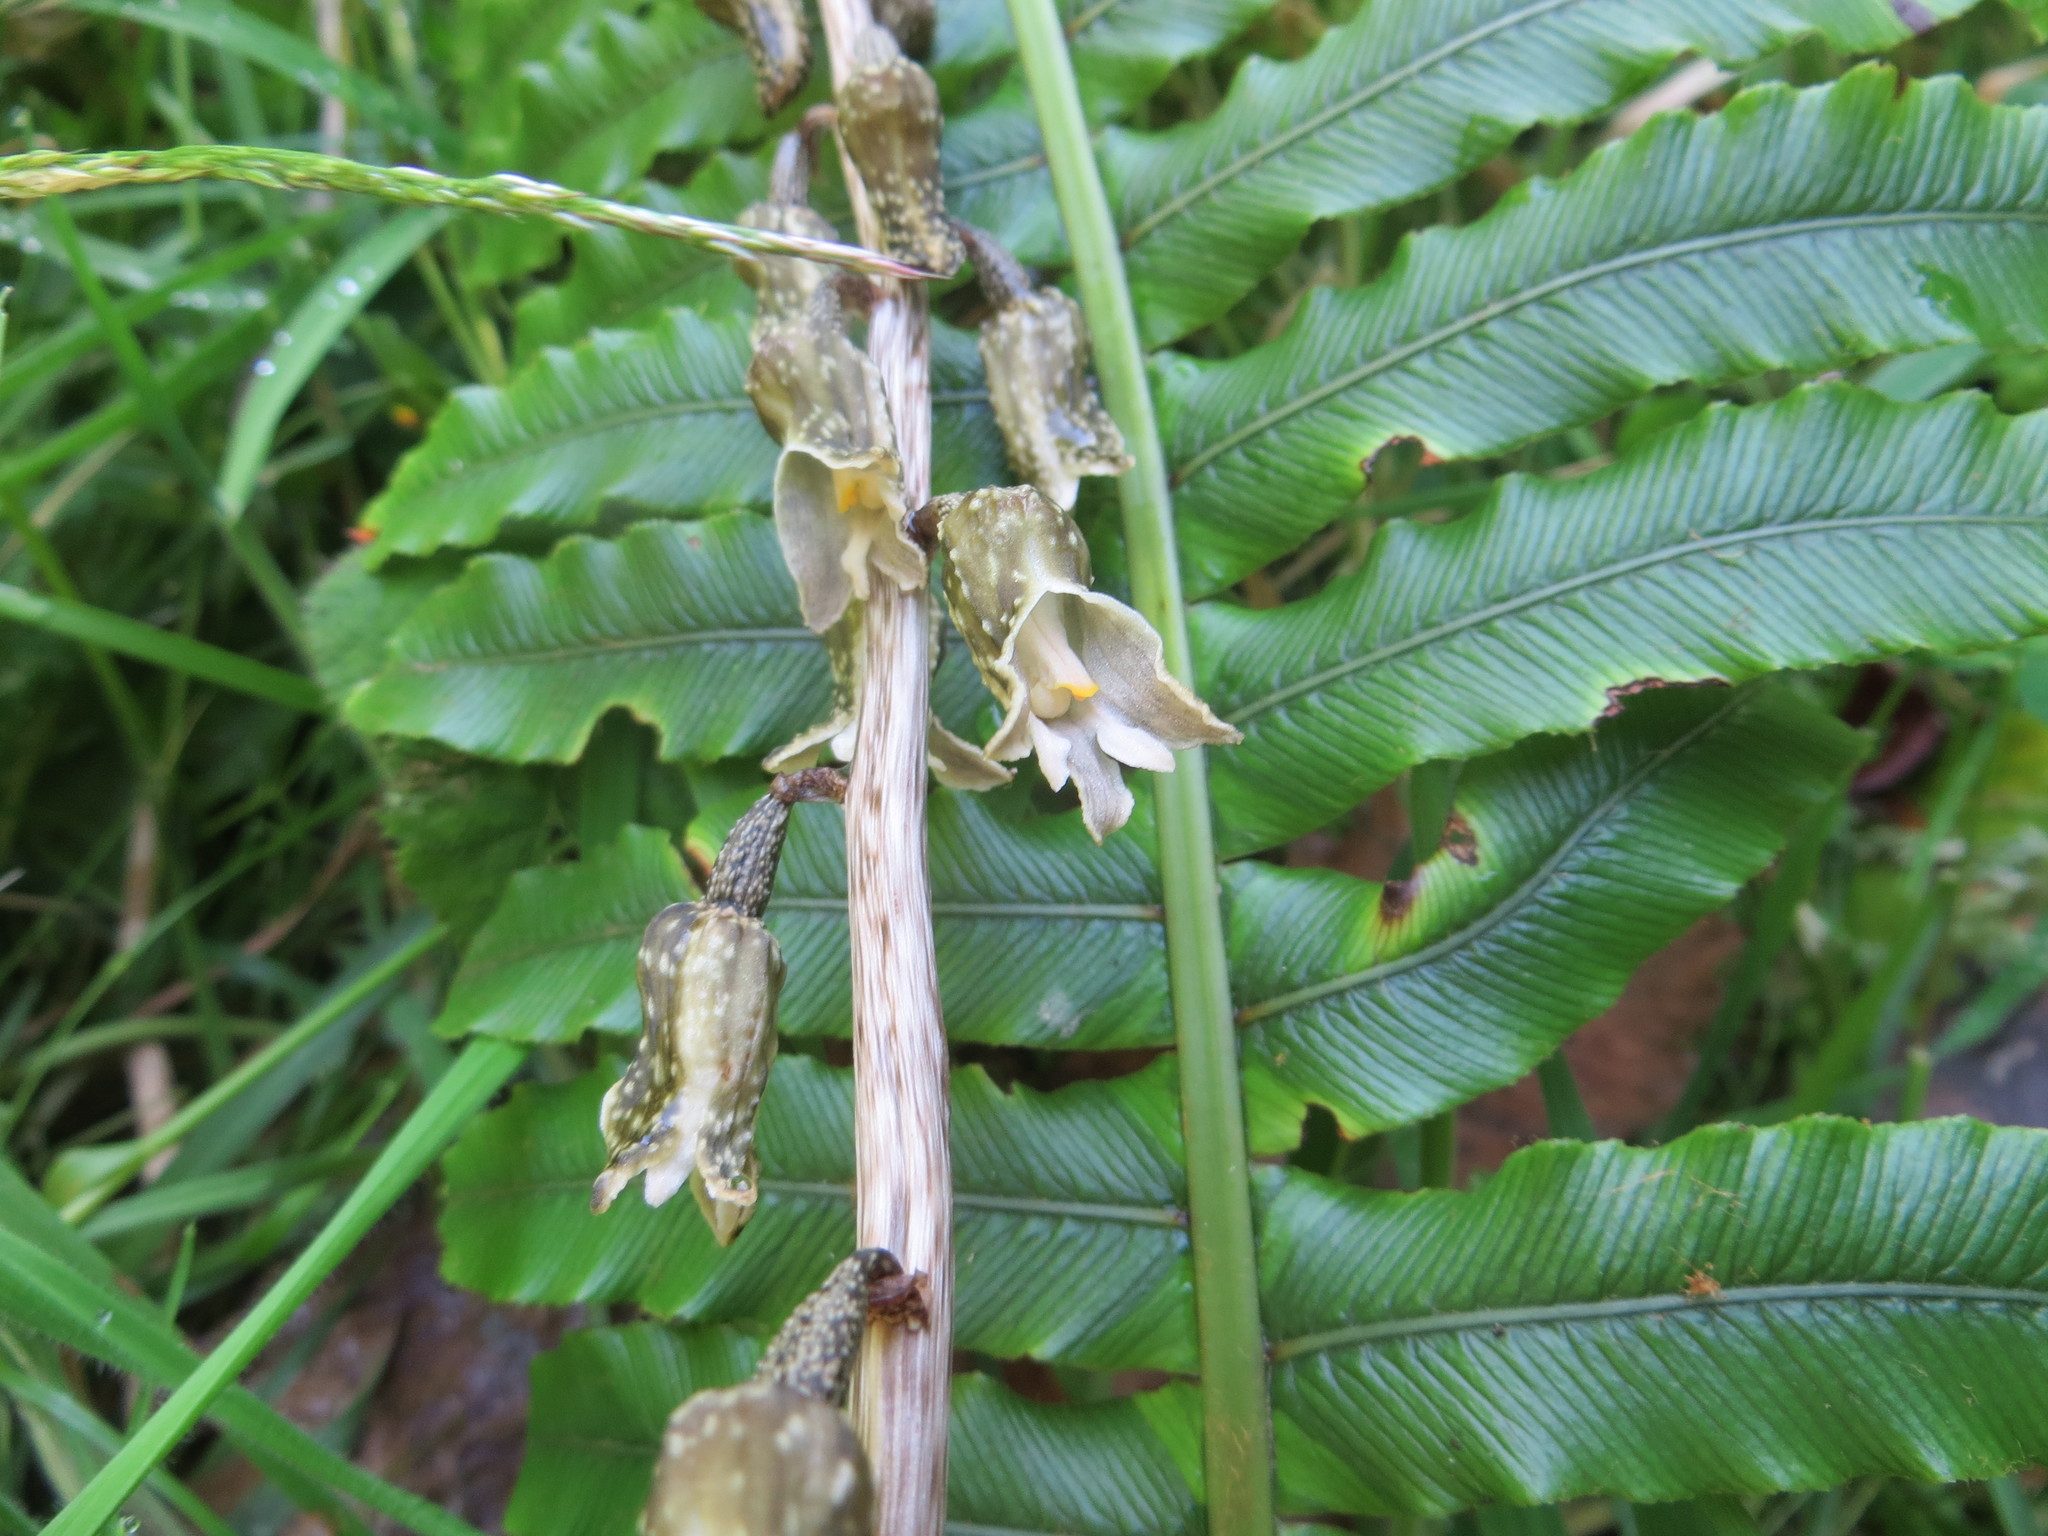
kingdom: Plantae
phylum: Tracheophyta
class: Liliopsida
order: Asparagales
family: Orchidaceae
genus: Gastrodia
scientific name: Gastrodia molloyi
